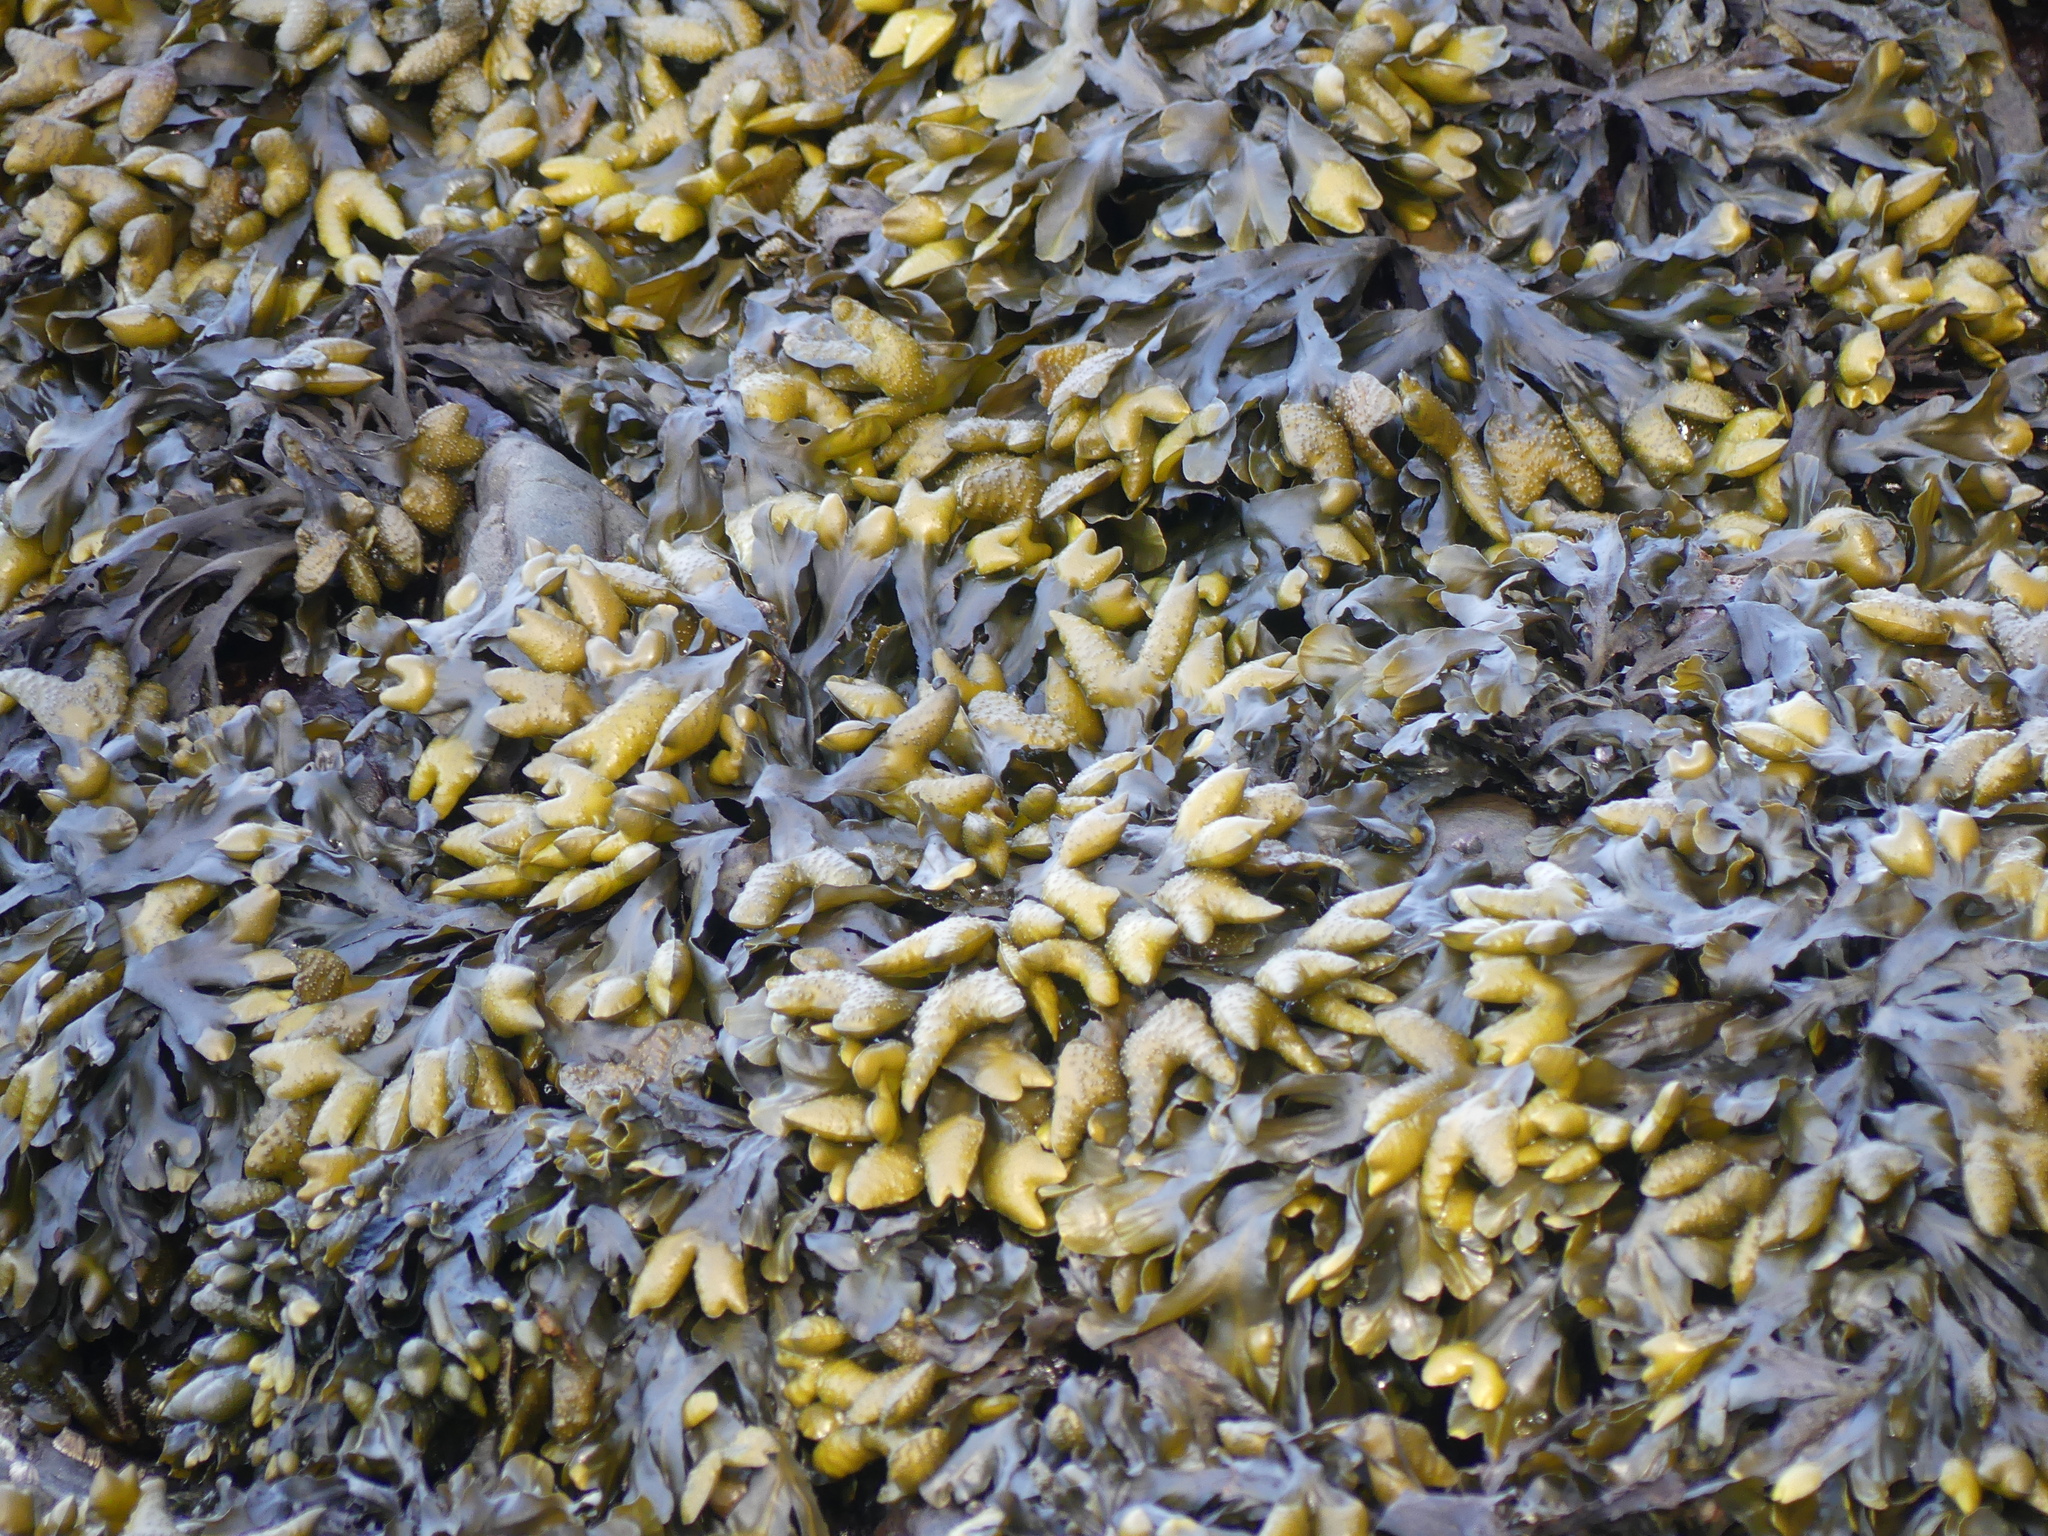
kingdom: Chromista
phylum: Ochrophyta
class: Phaeophyceae
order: Fucales
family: Fucaceae
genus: Fucus
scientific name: Fucus distichus
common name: Rockweed
